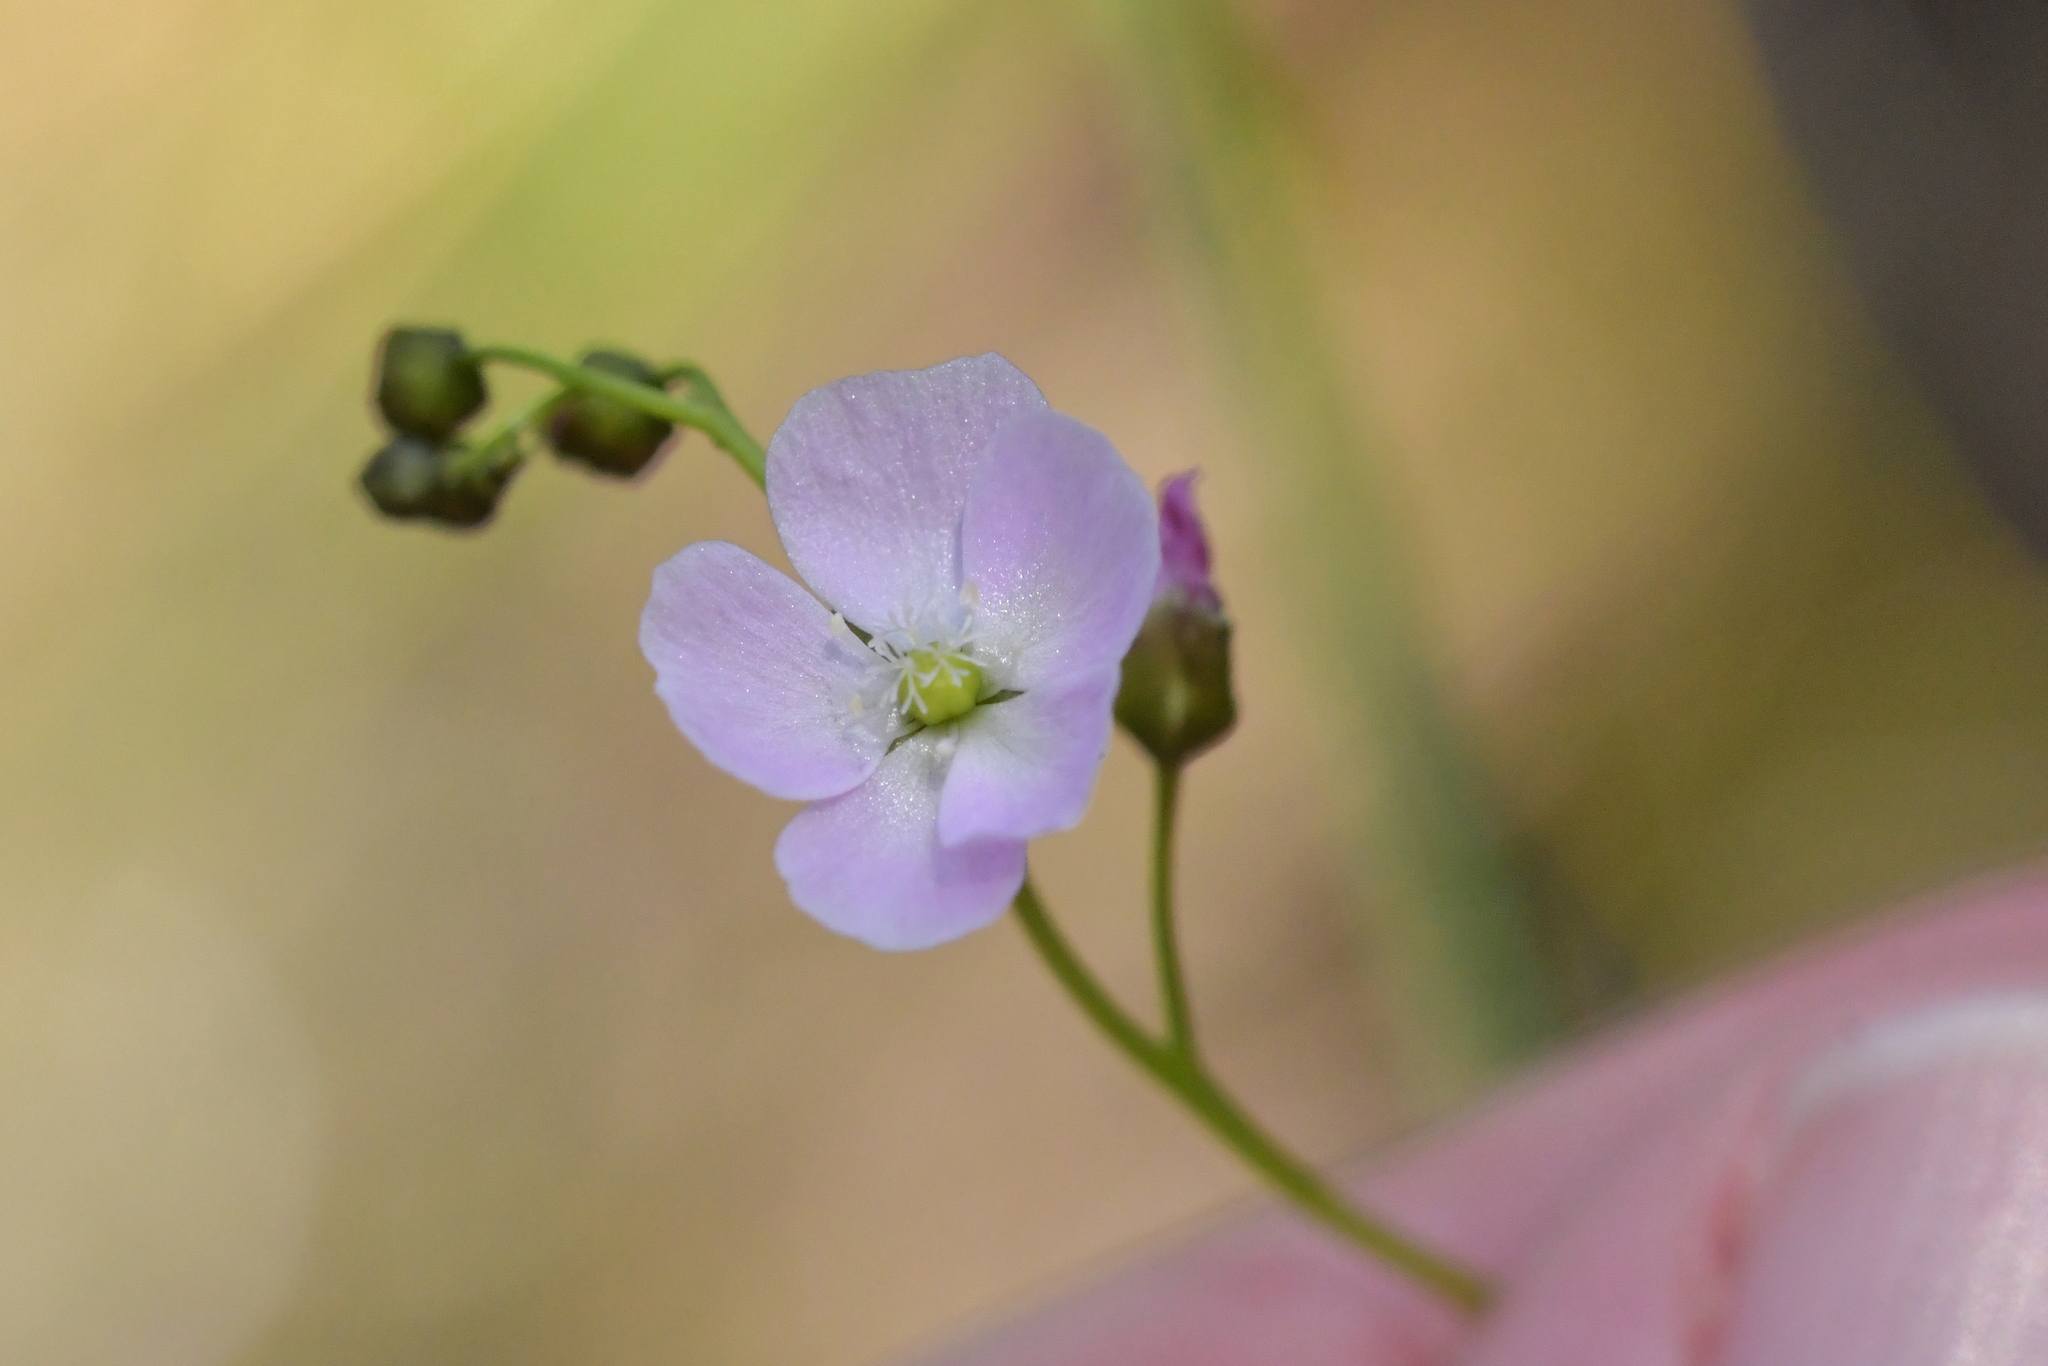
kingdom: Plantae
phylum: Tracheophyta
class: Magnoliopsida
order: Caryophyllales
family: Droseraceae
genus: Drosera
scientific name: Drosera peltata
